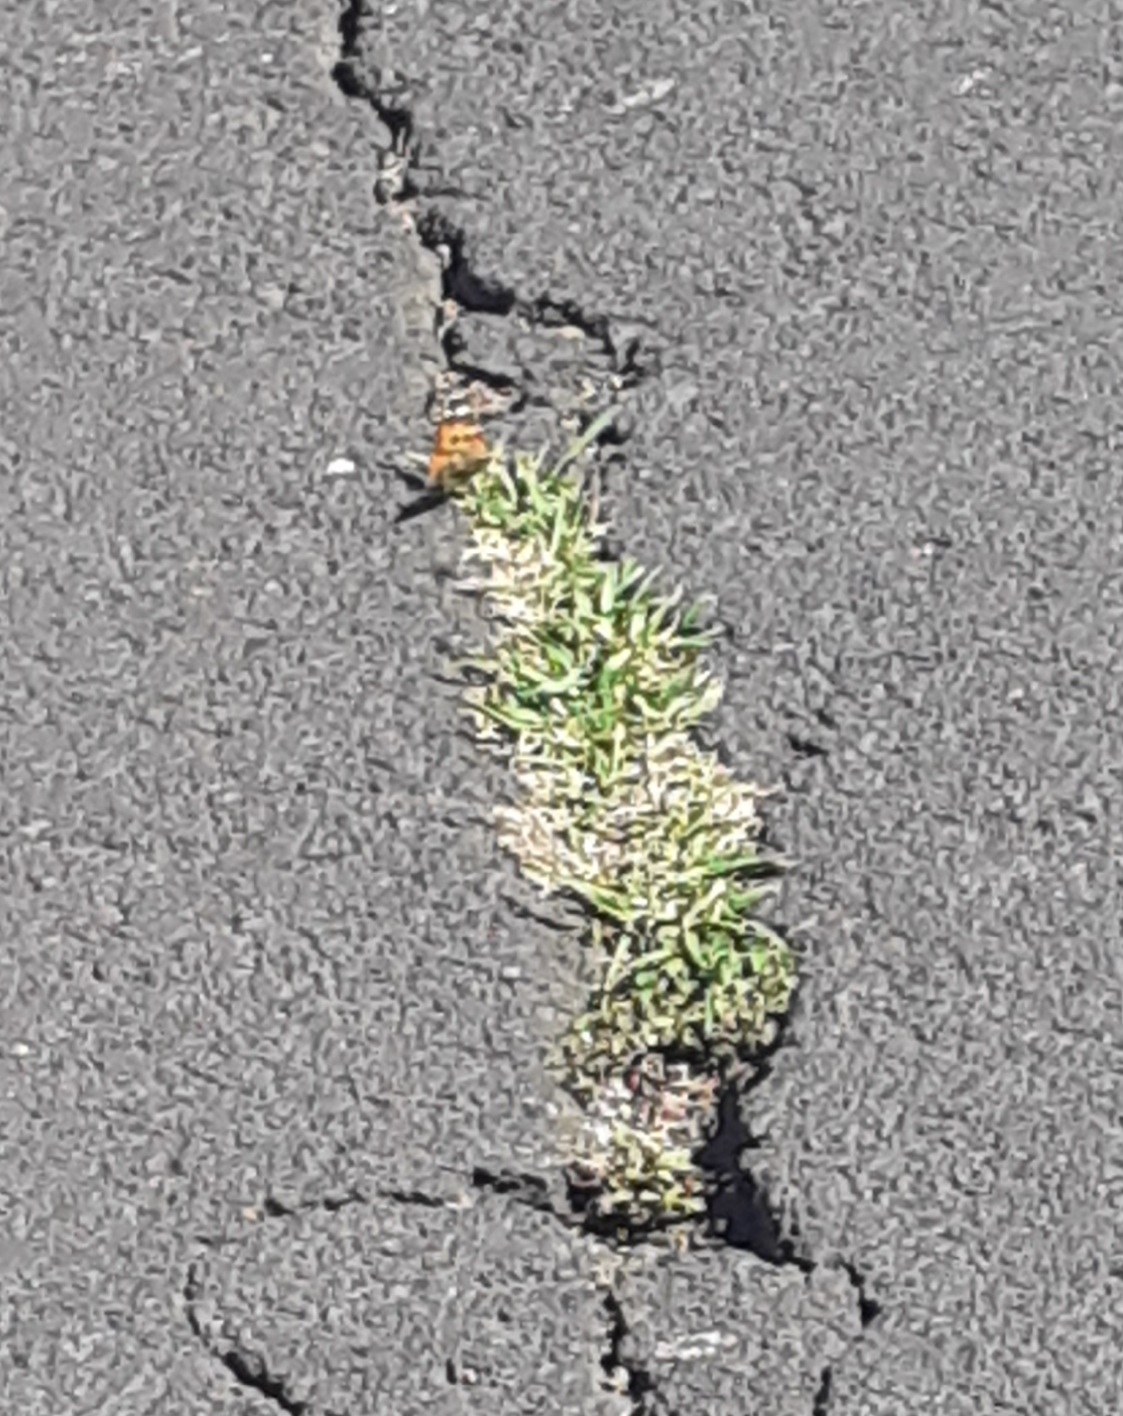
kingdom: Animalia
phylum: Arthropoda
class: Insecta
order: Lepidoptera
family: Nymphalidae
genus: Vanessa
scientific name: Vanessa cardui
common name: Painted lady
